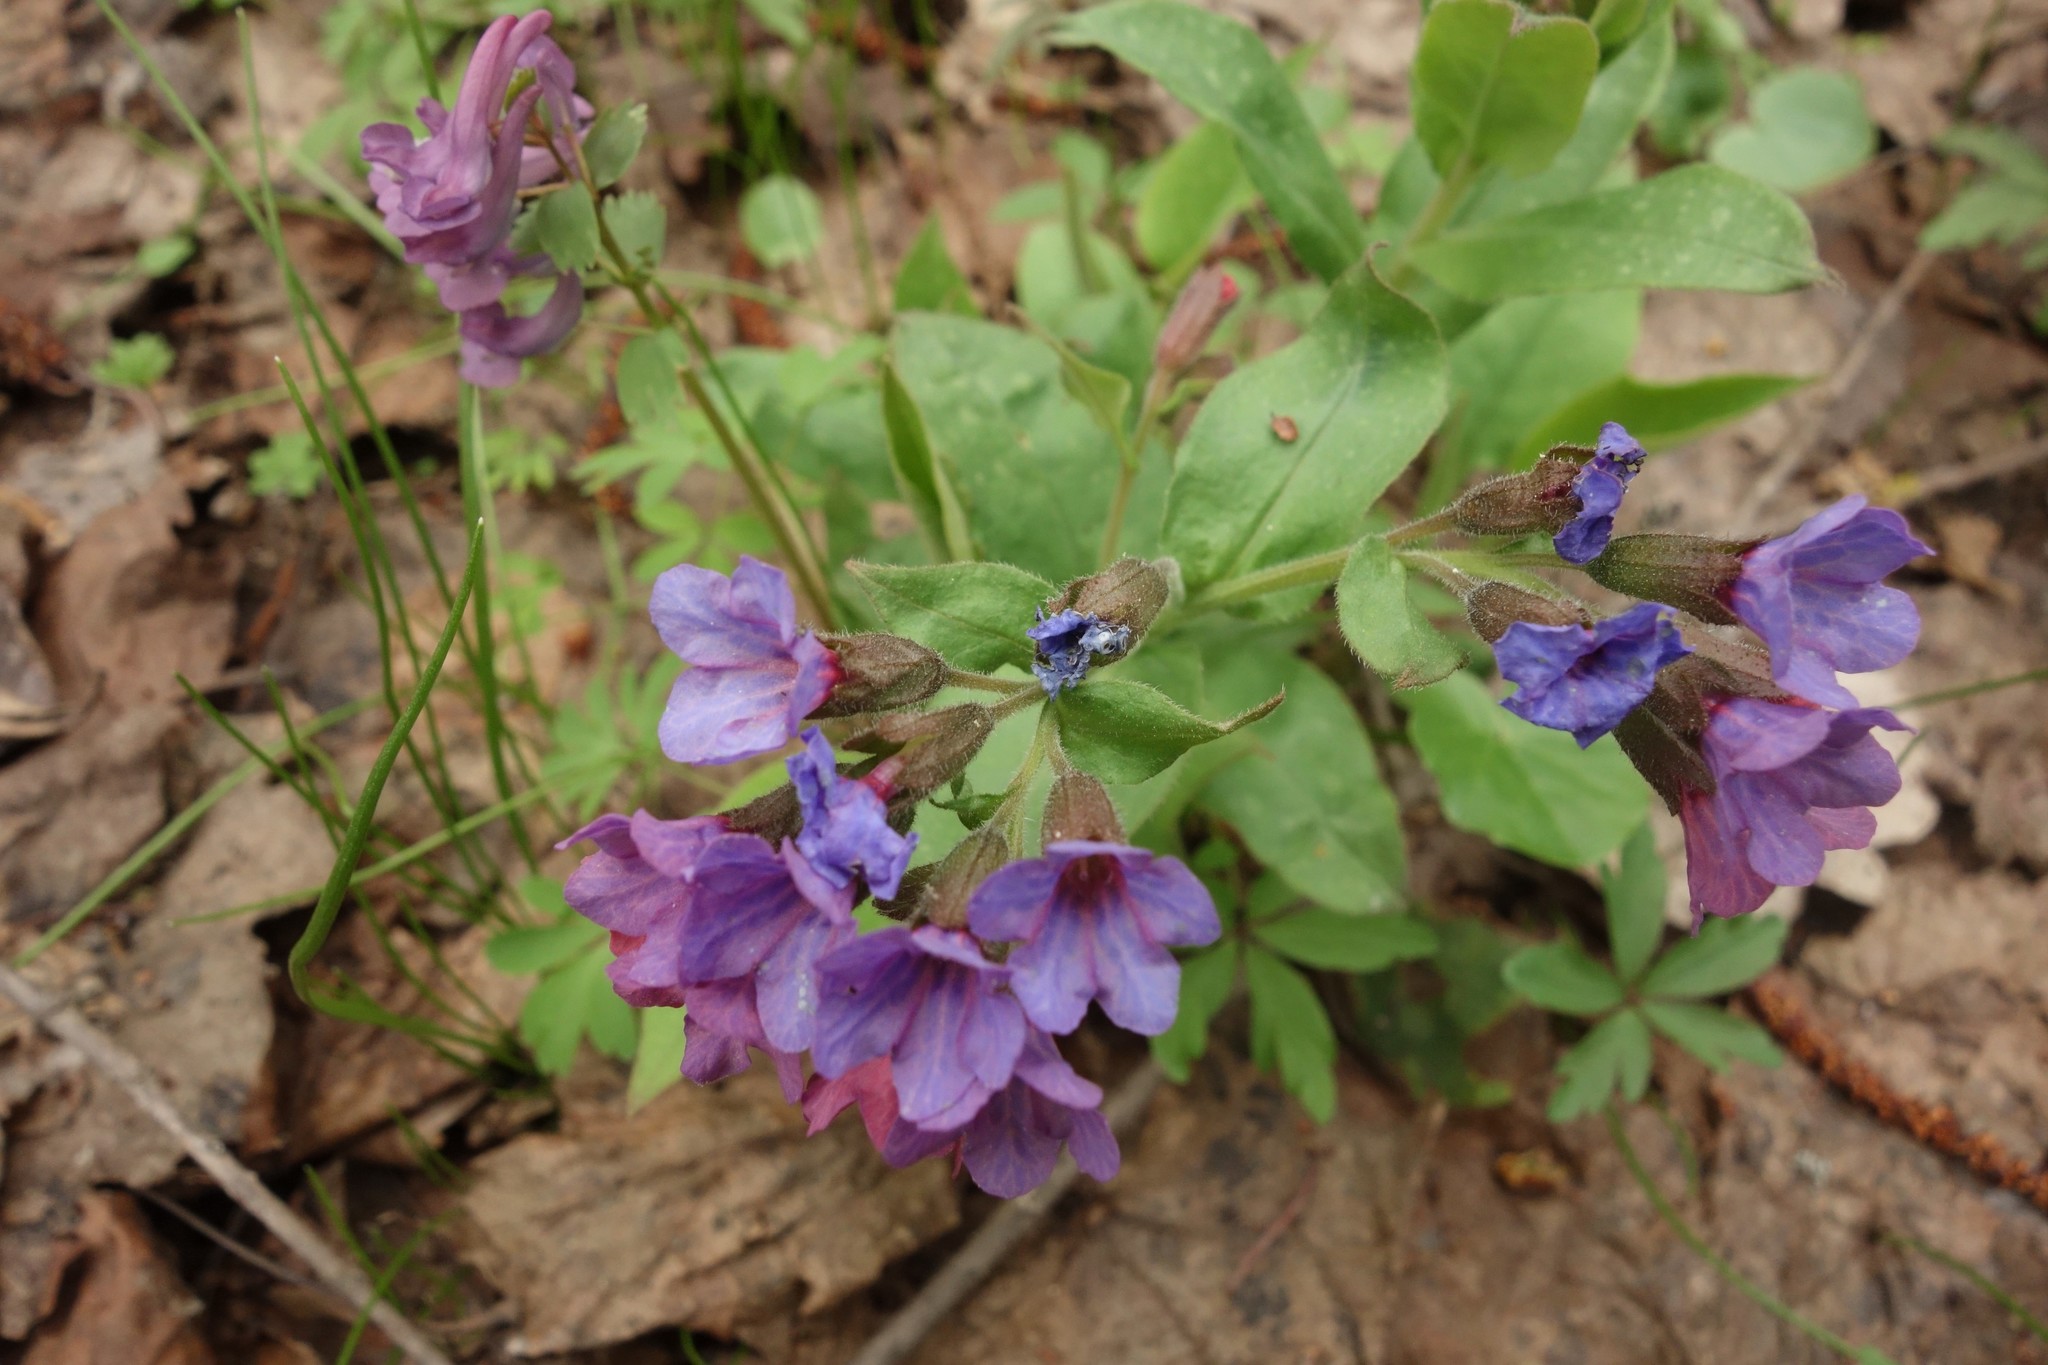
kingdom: Plantae
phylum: Tracheophyta
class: Magnoliopsida
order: Boraginales
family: Boraginaceae
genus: Pulmonaria
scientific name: Pulmonaria obscura
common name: Suffolk lungwort
